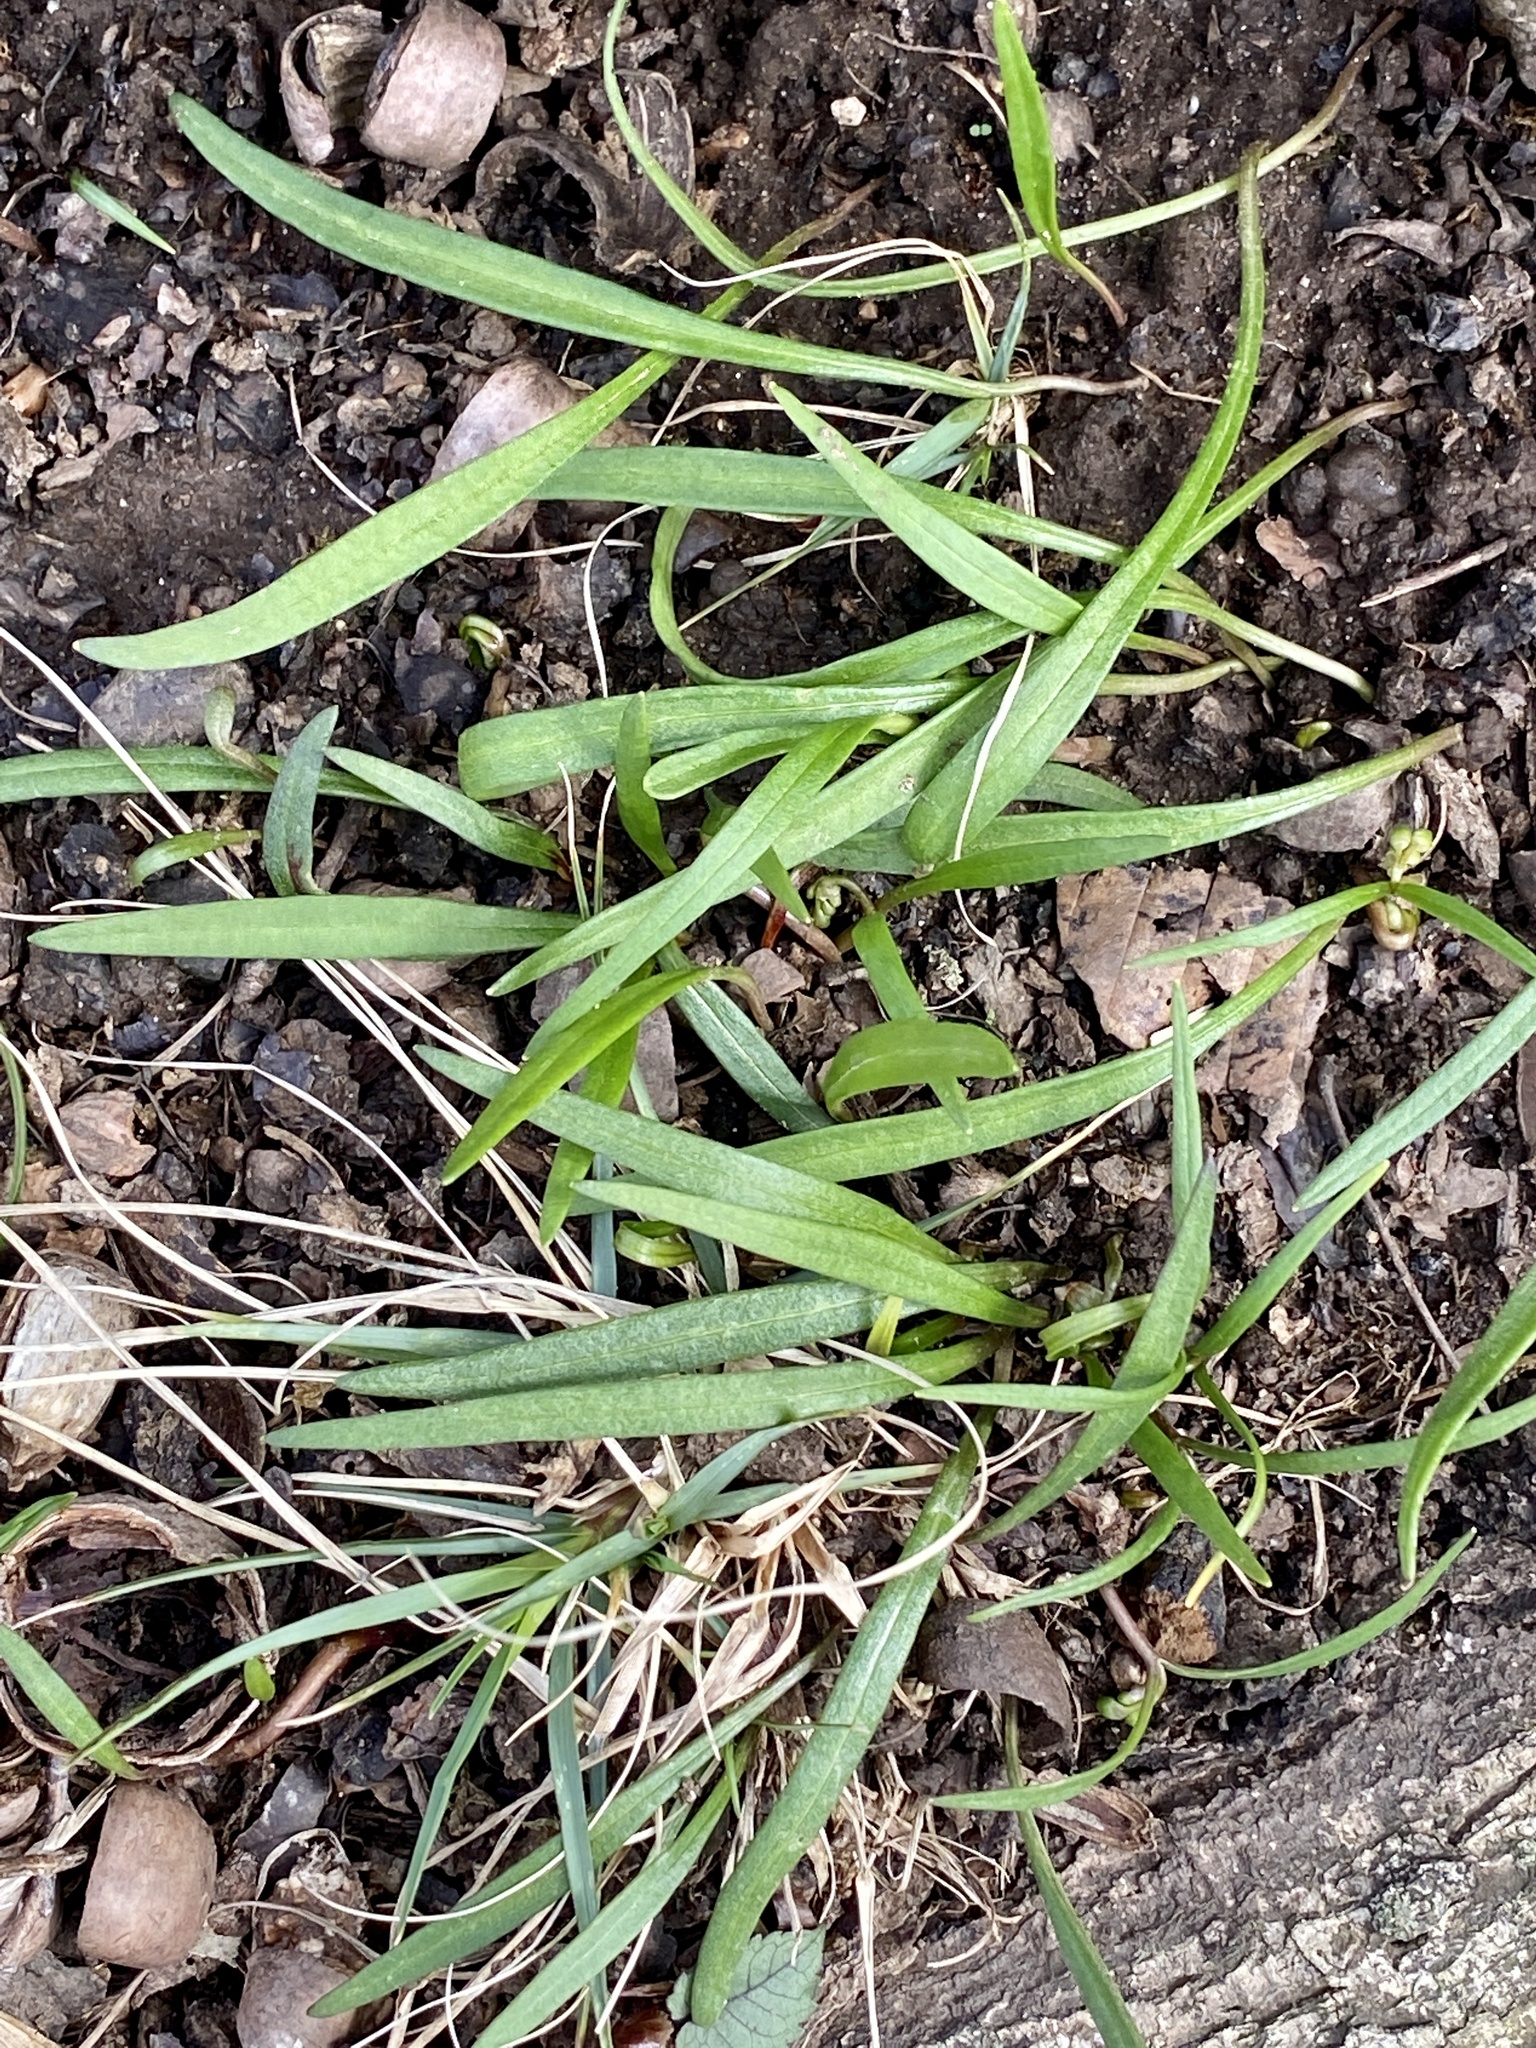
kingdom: Plantae
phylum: Tracheophyta
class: Magnoliopsida
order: Caryophyllales
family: Montiaceae
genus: Claytonia
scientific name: Claytonia virginica
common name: Virginia springbeauty
